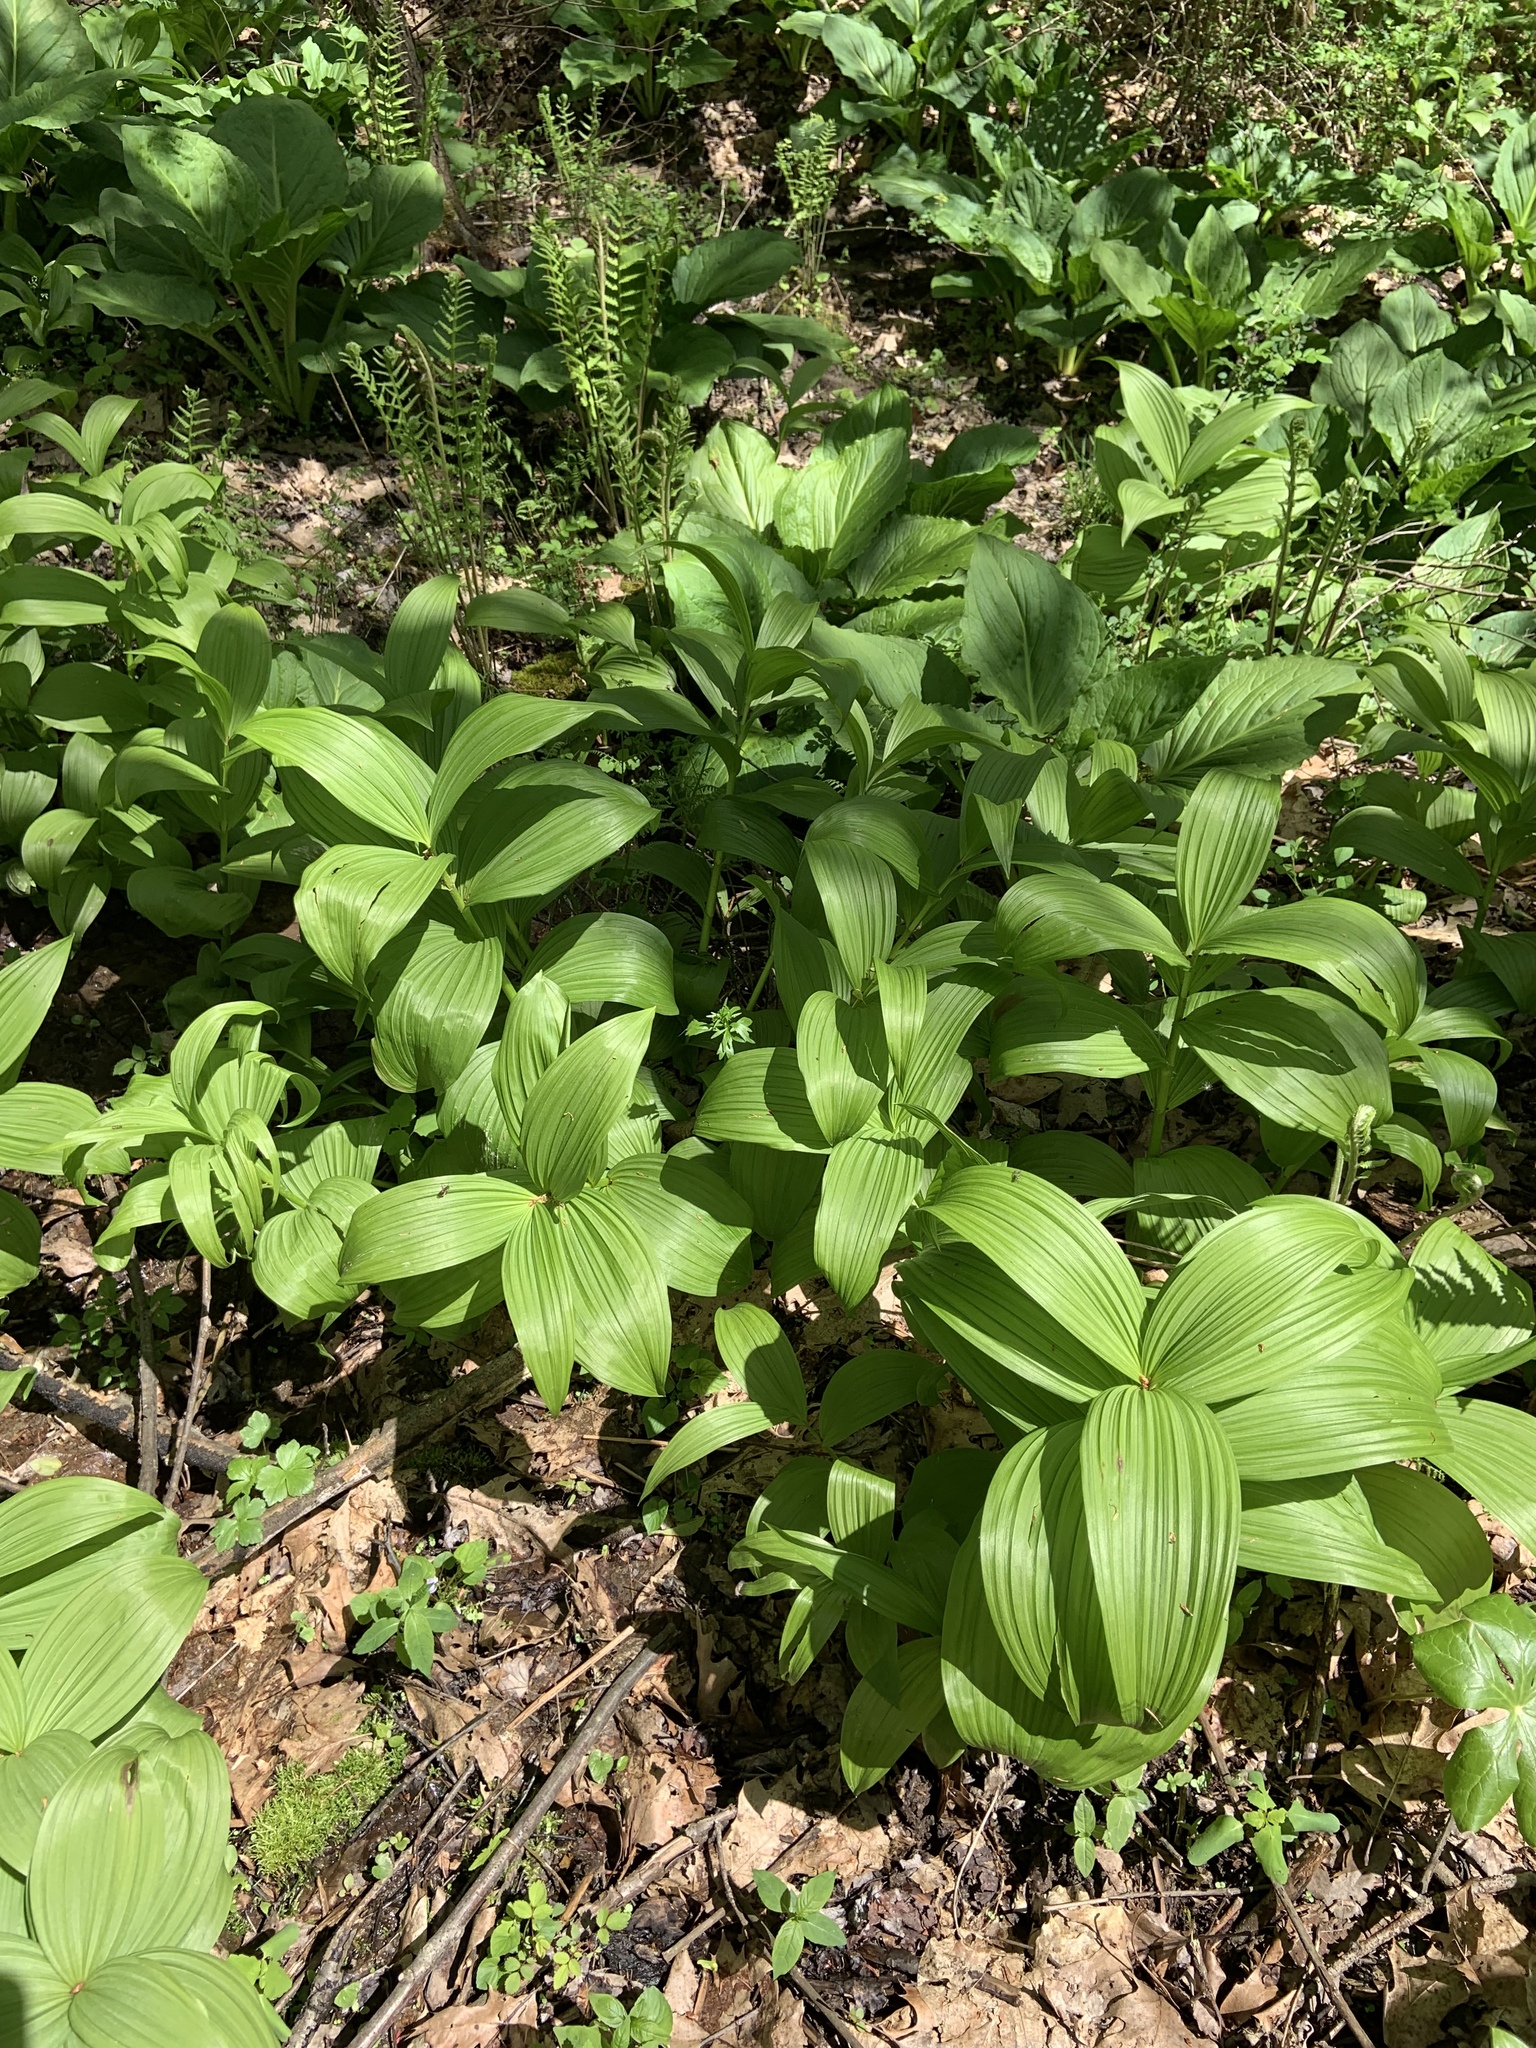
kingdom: Plantae
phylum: Tracheophyta
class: Liliopsida
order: Liliales
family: Melanthiaceae
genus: Veratrum
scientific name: Veratrum viride
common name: American false hellebore
